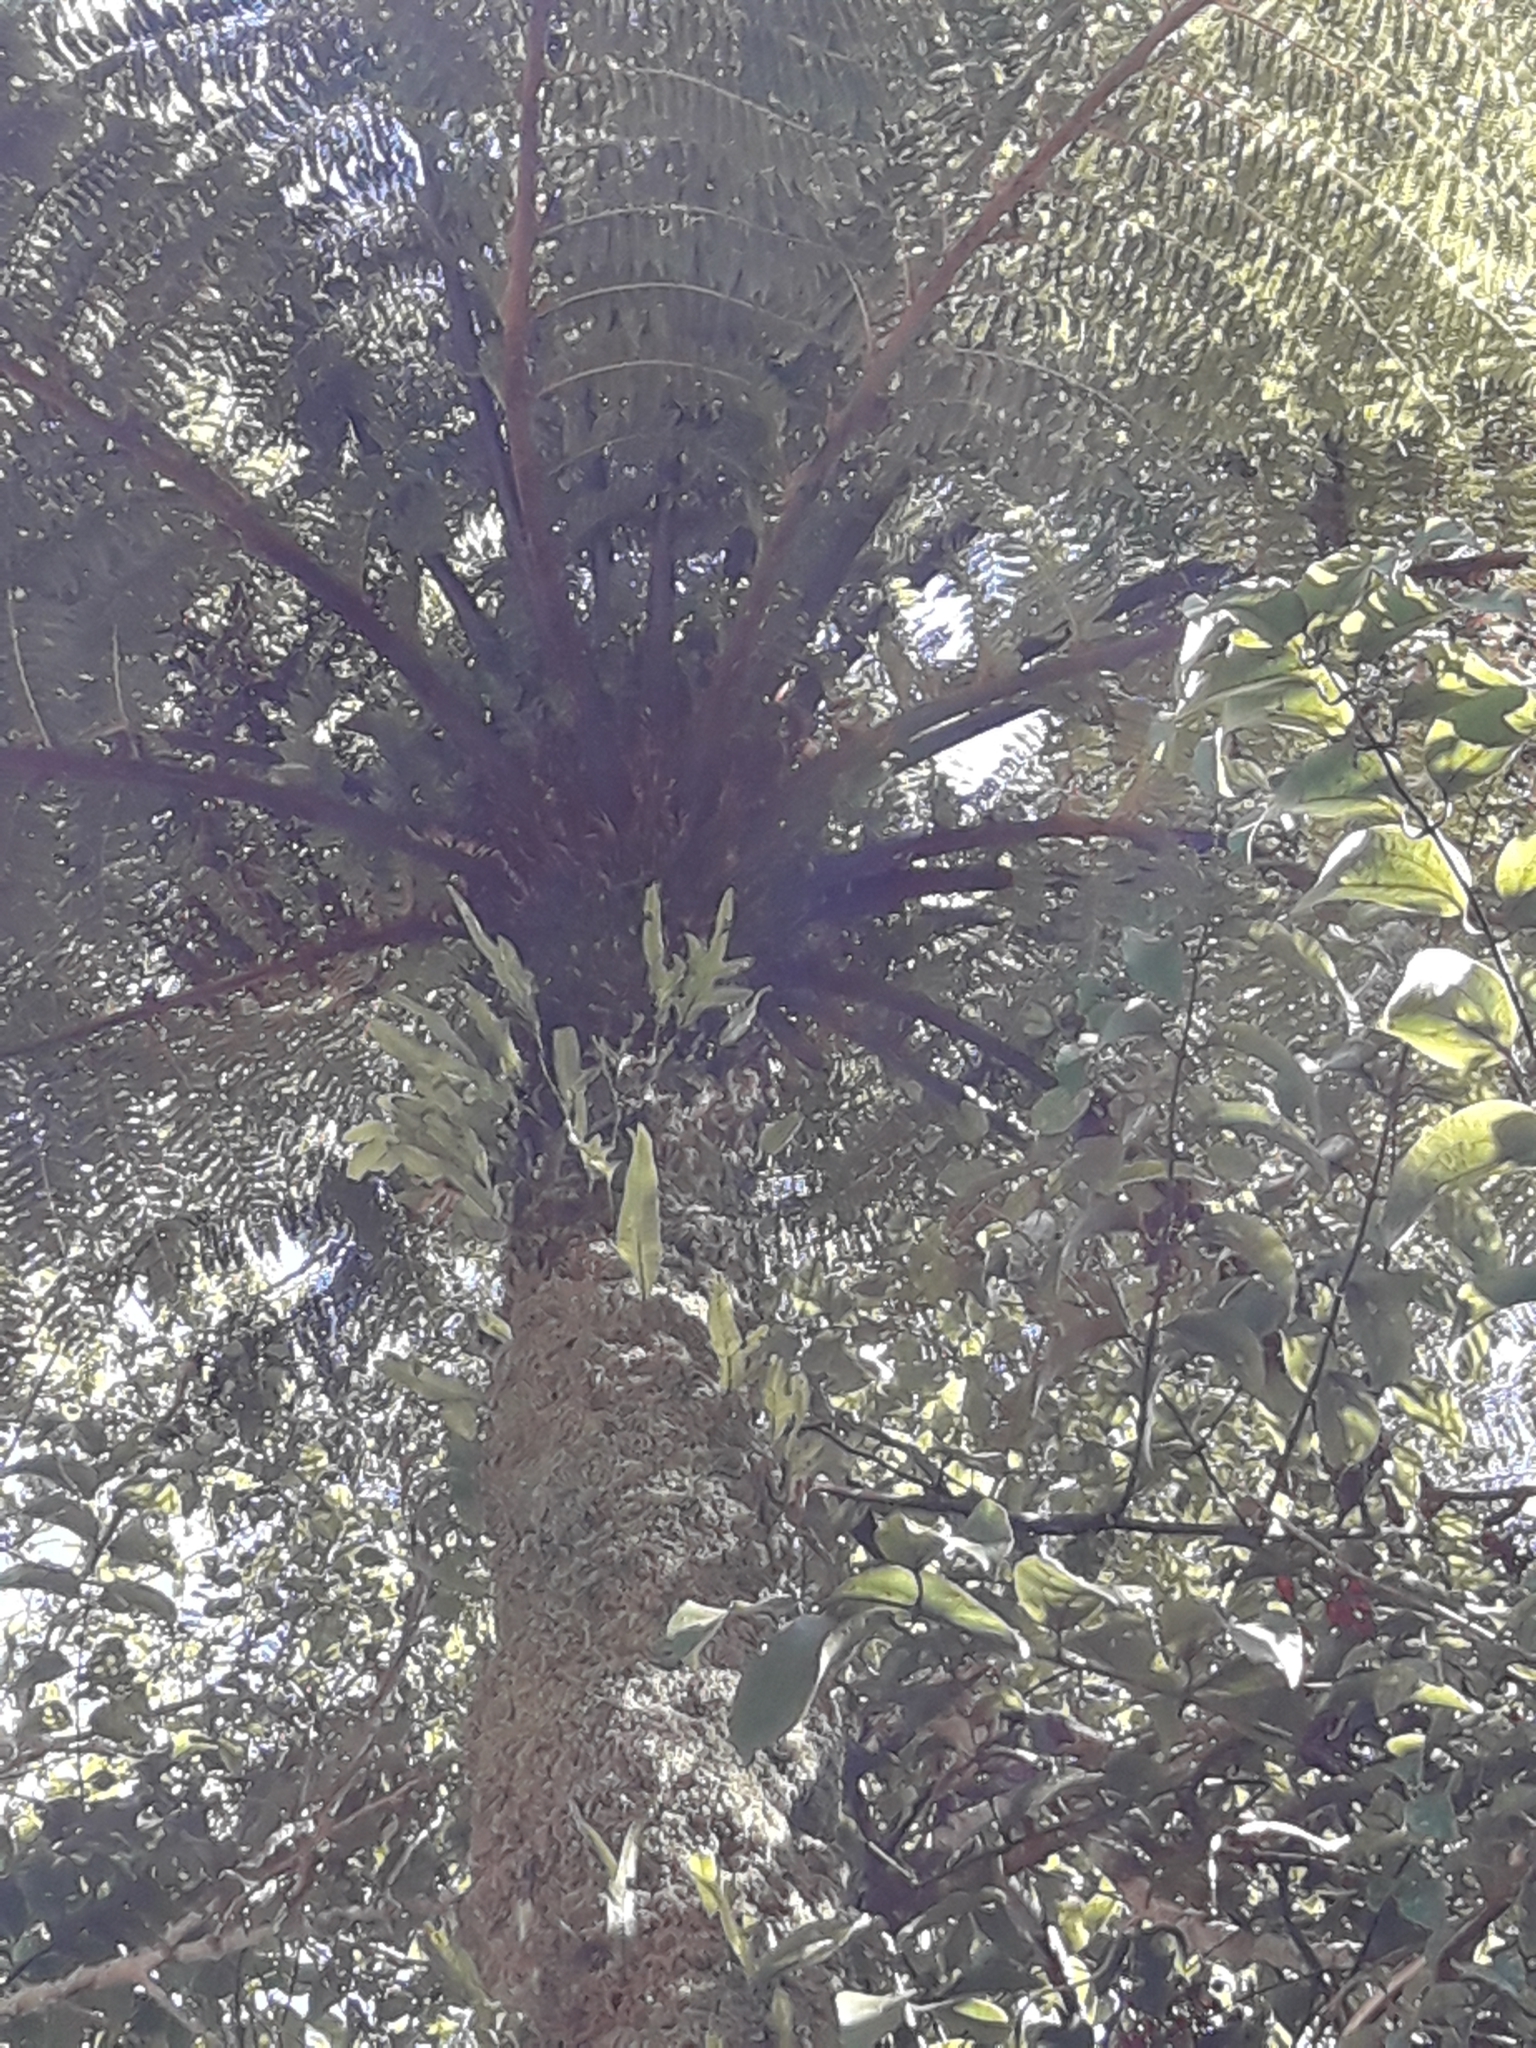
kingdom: Plantae
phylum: Tracheophyta
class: Polypodiopsida
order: Cyatheales
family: Cyatheaceae
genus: Cyathea
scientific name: Cyathea cunninghamii
